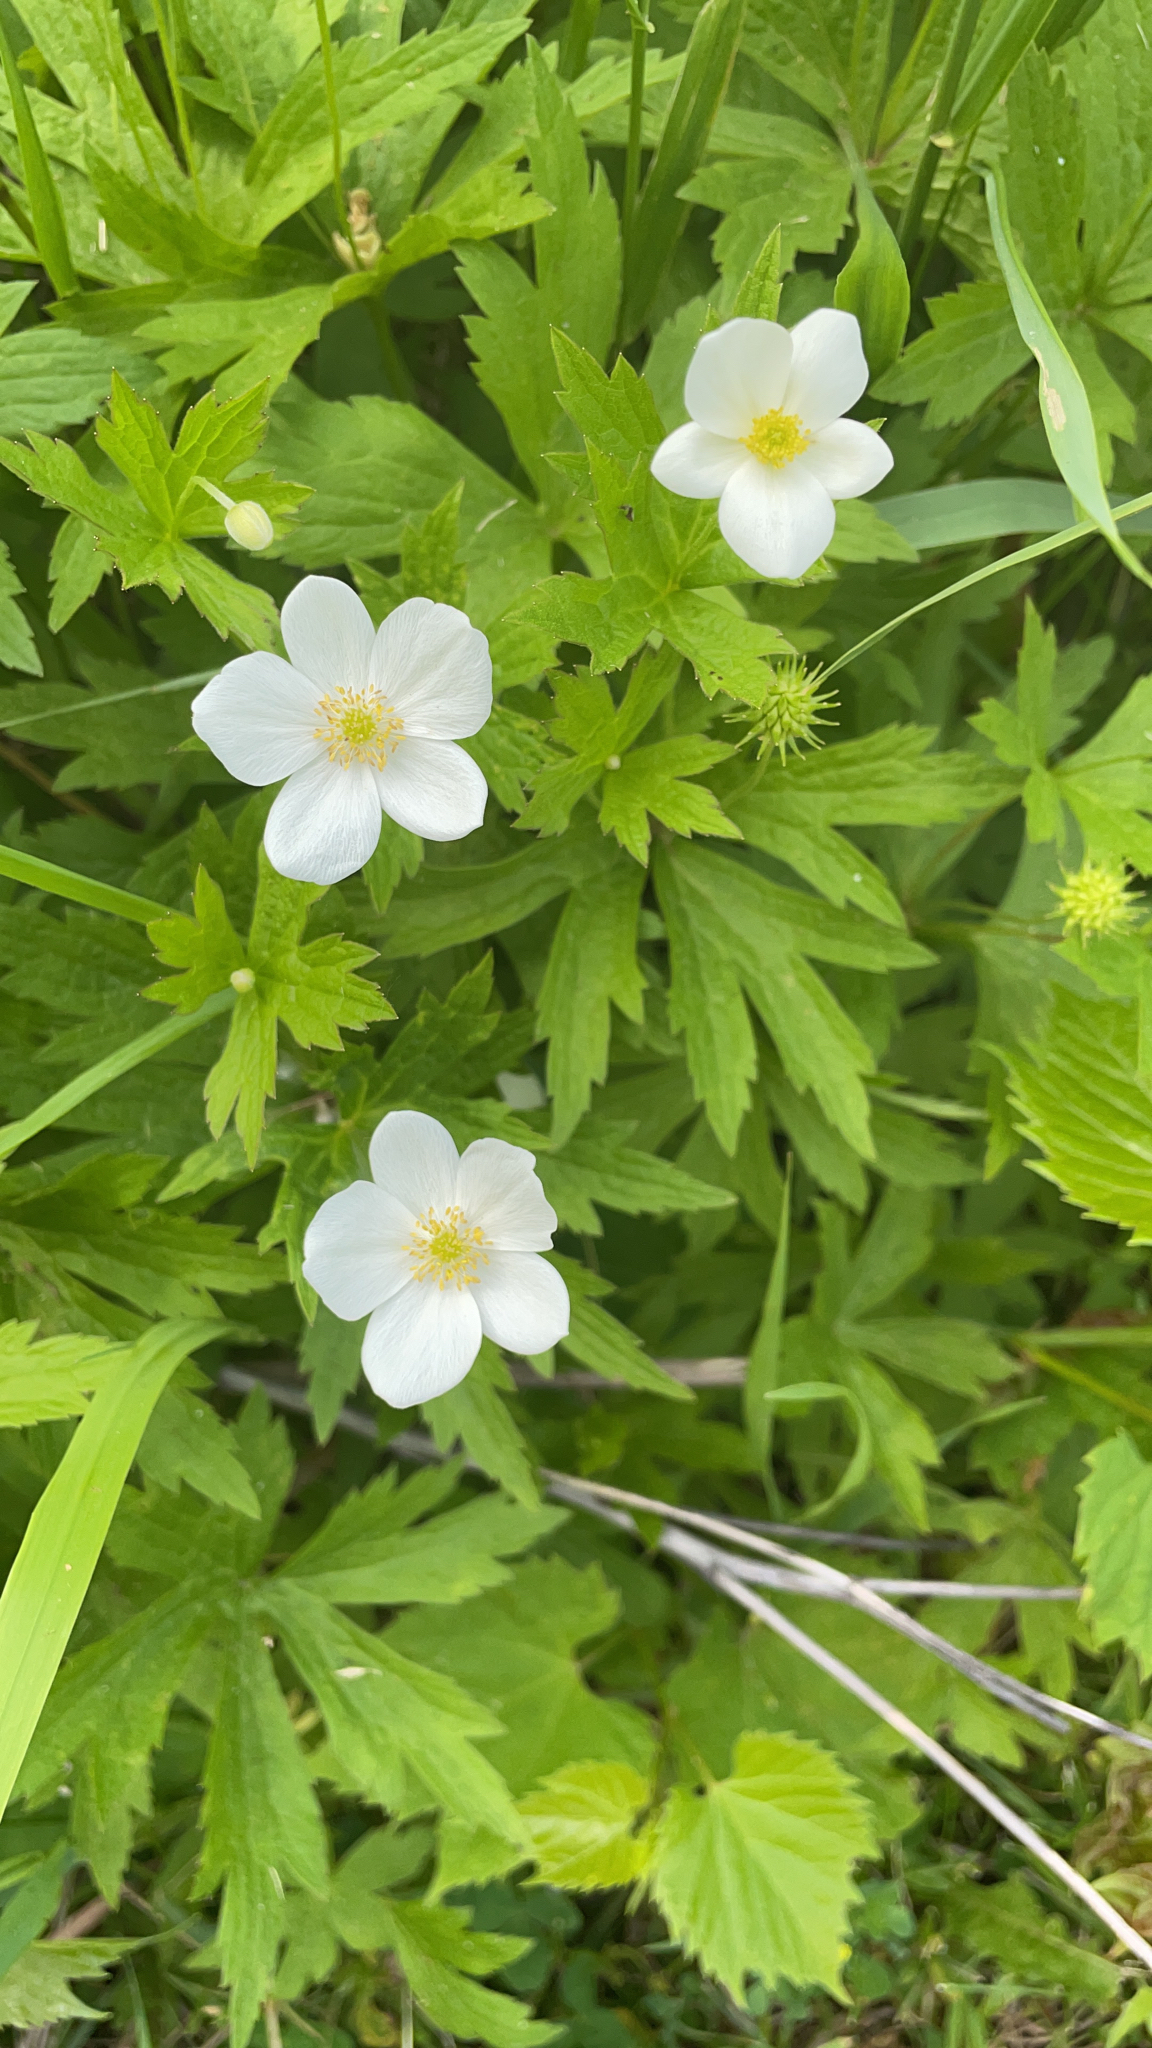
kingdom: Plantae
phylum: Tracheophyta
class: Magnoliopsida
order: Ranunculales
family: Ranunculaceae
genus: Anemonastrum
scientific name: Anemonastrum canadense
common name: Canada anemone
